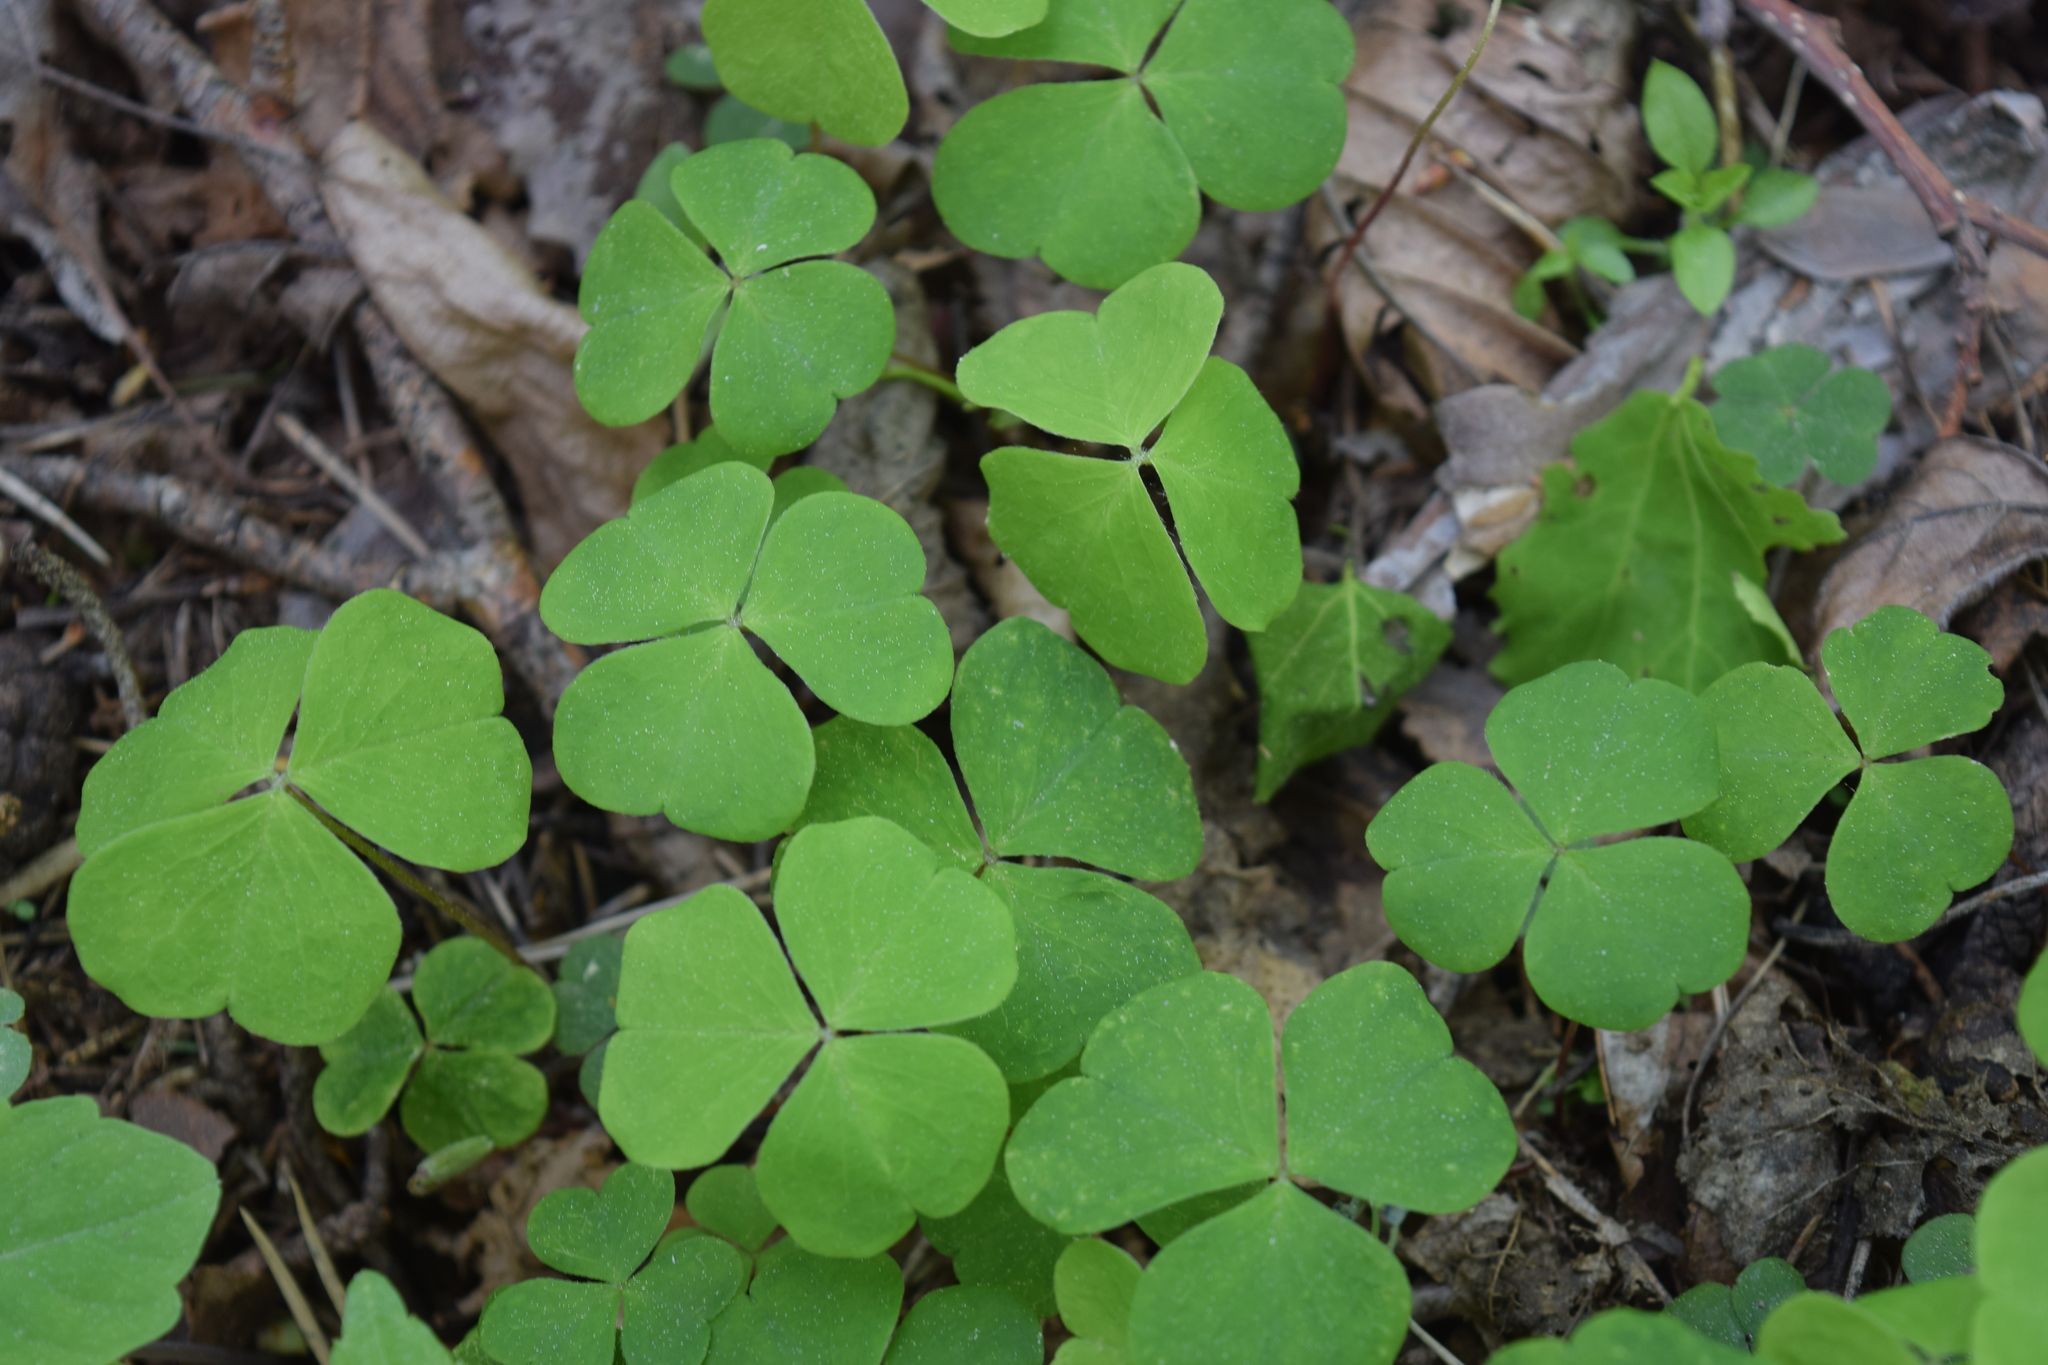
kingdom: Plantae
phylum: Tracheophyta
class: Magnoliopsida
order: Oxalidales
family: Oxalidaceae
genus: Oxalis
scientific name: Oxalis acetosella
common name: Wood-sorrel
